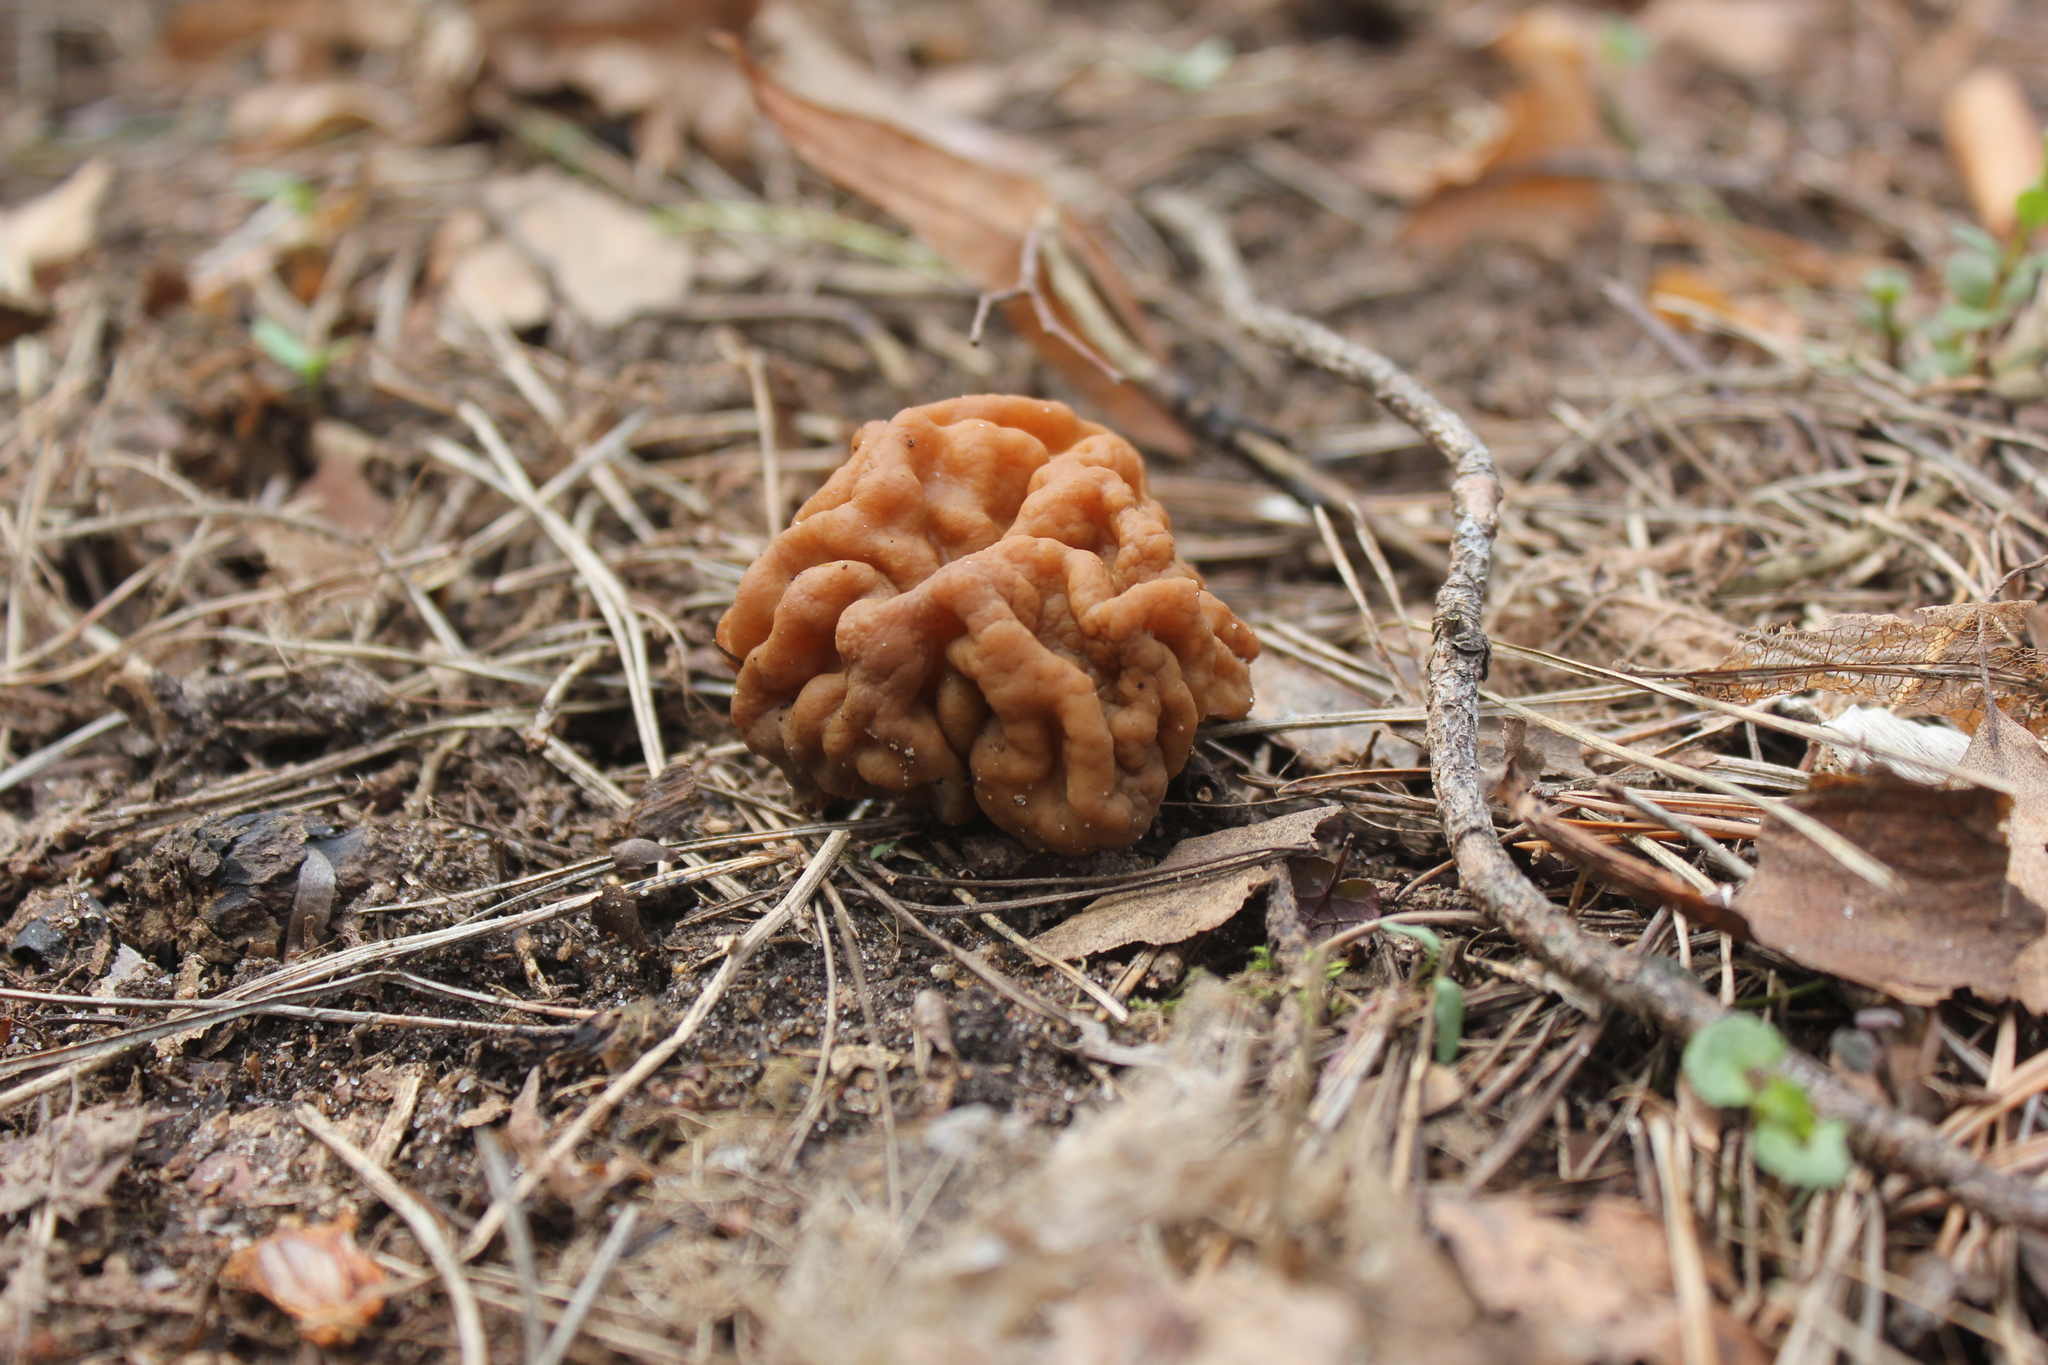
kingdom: Fungi
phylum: Ascomycota
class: Pezizomycetes
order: Pezizales
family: Discinaceae
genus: Gyromitra
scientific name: Gyromitra gigas
